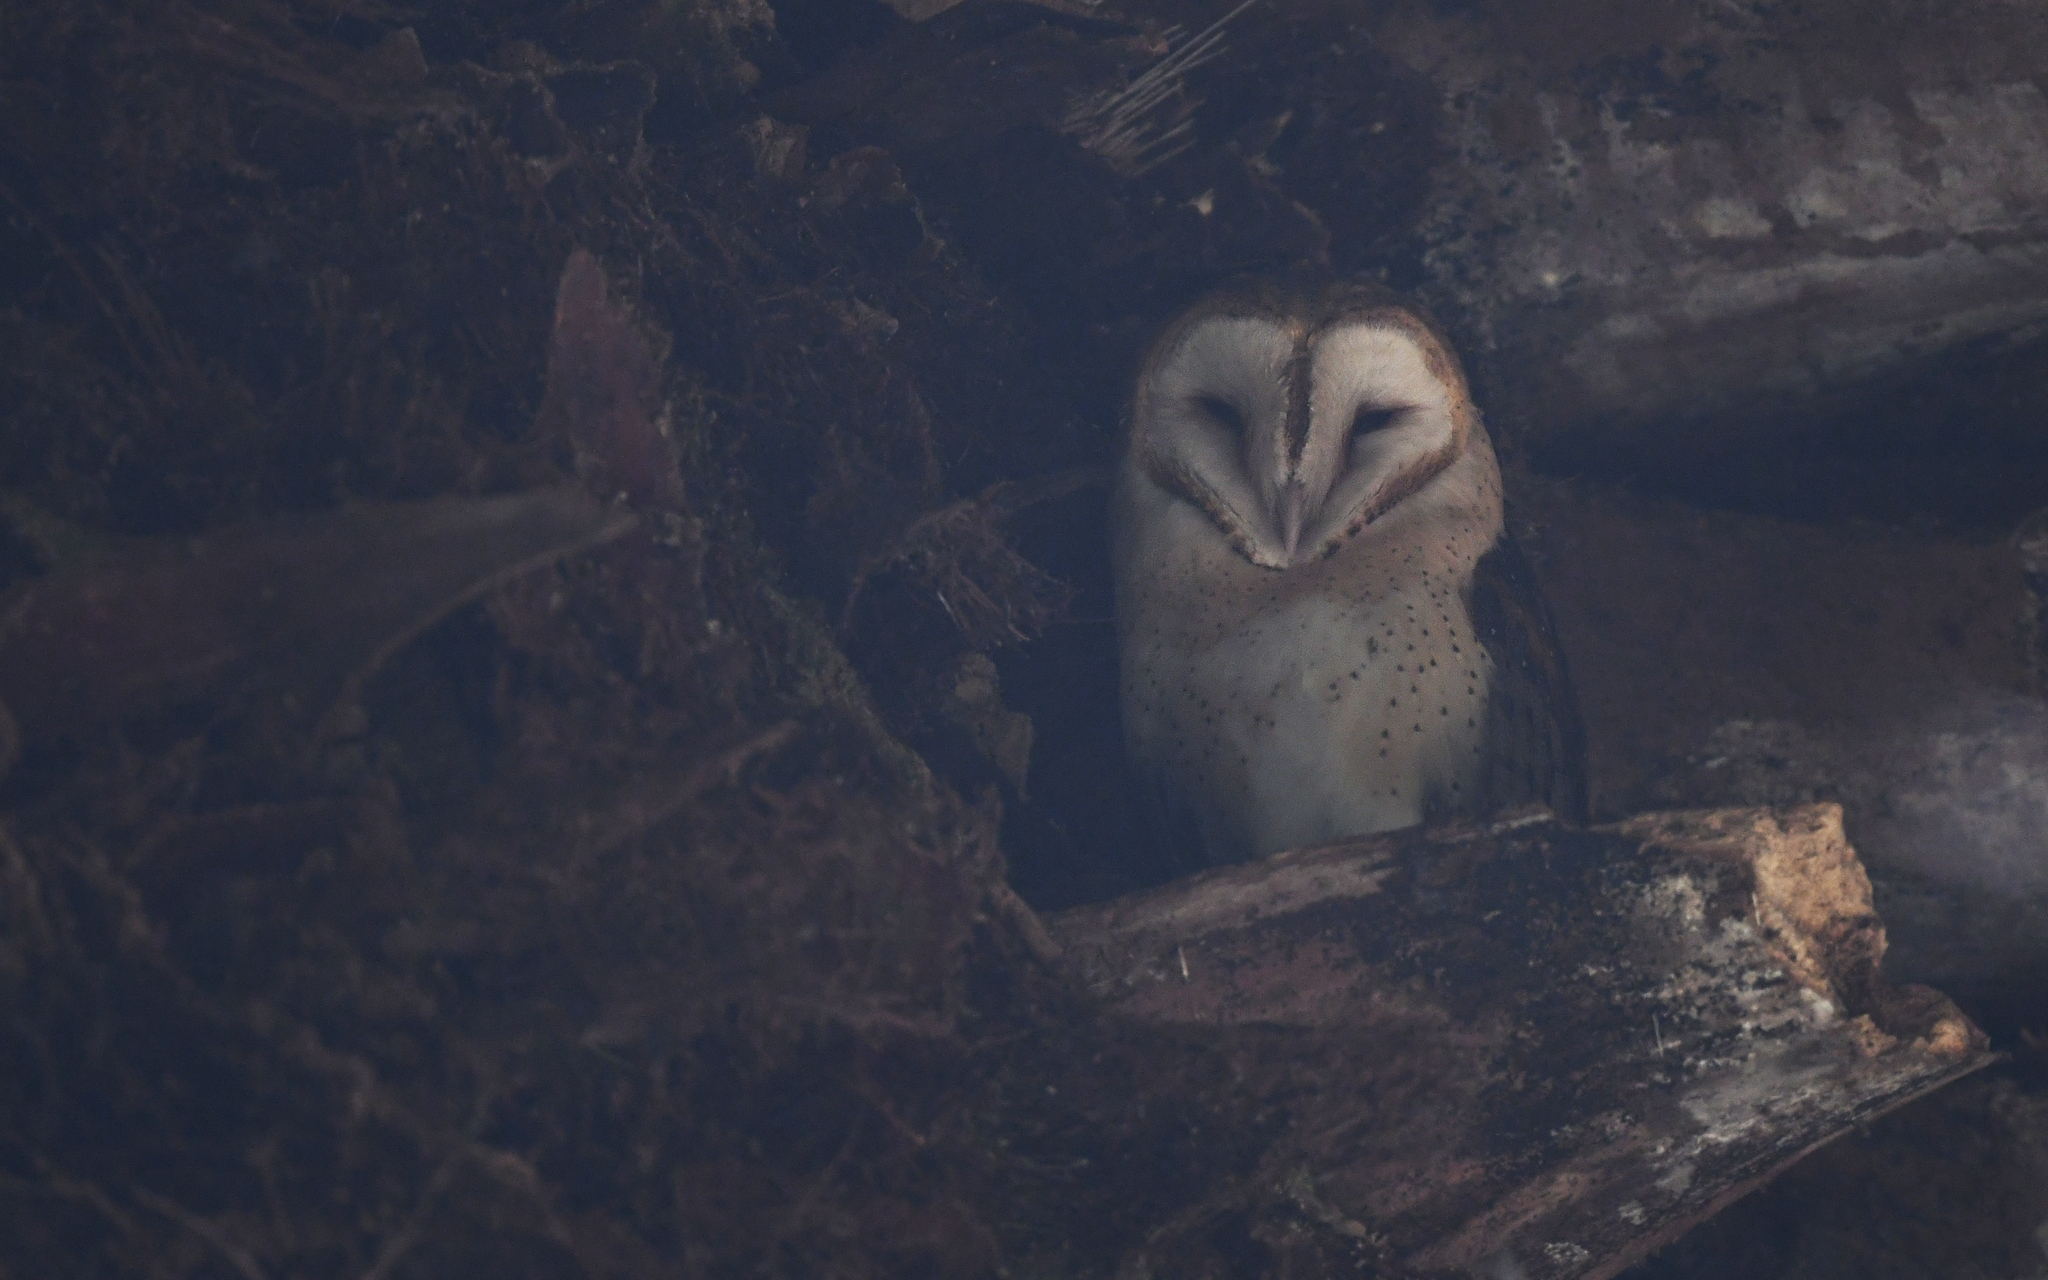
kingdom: Animalia
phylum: Chordata
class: Aves
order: Strigiformes
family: Tytonidae
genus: Tyto
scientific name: Tyto alba
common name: Barn owl
